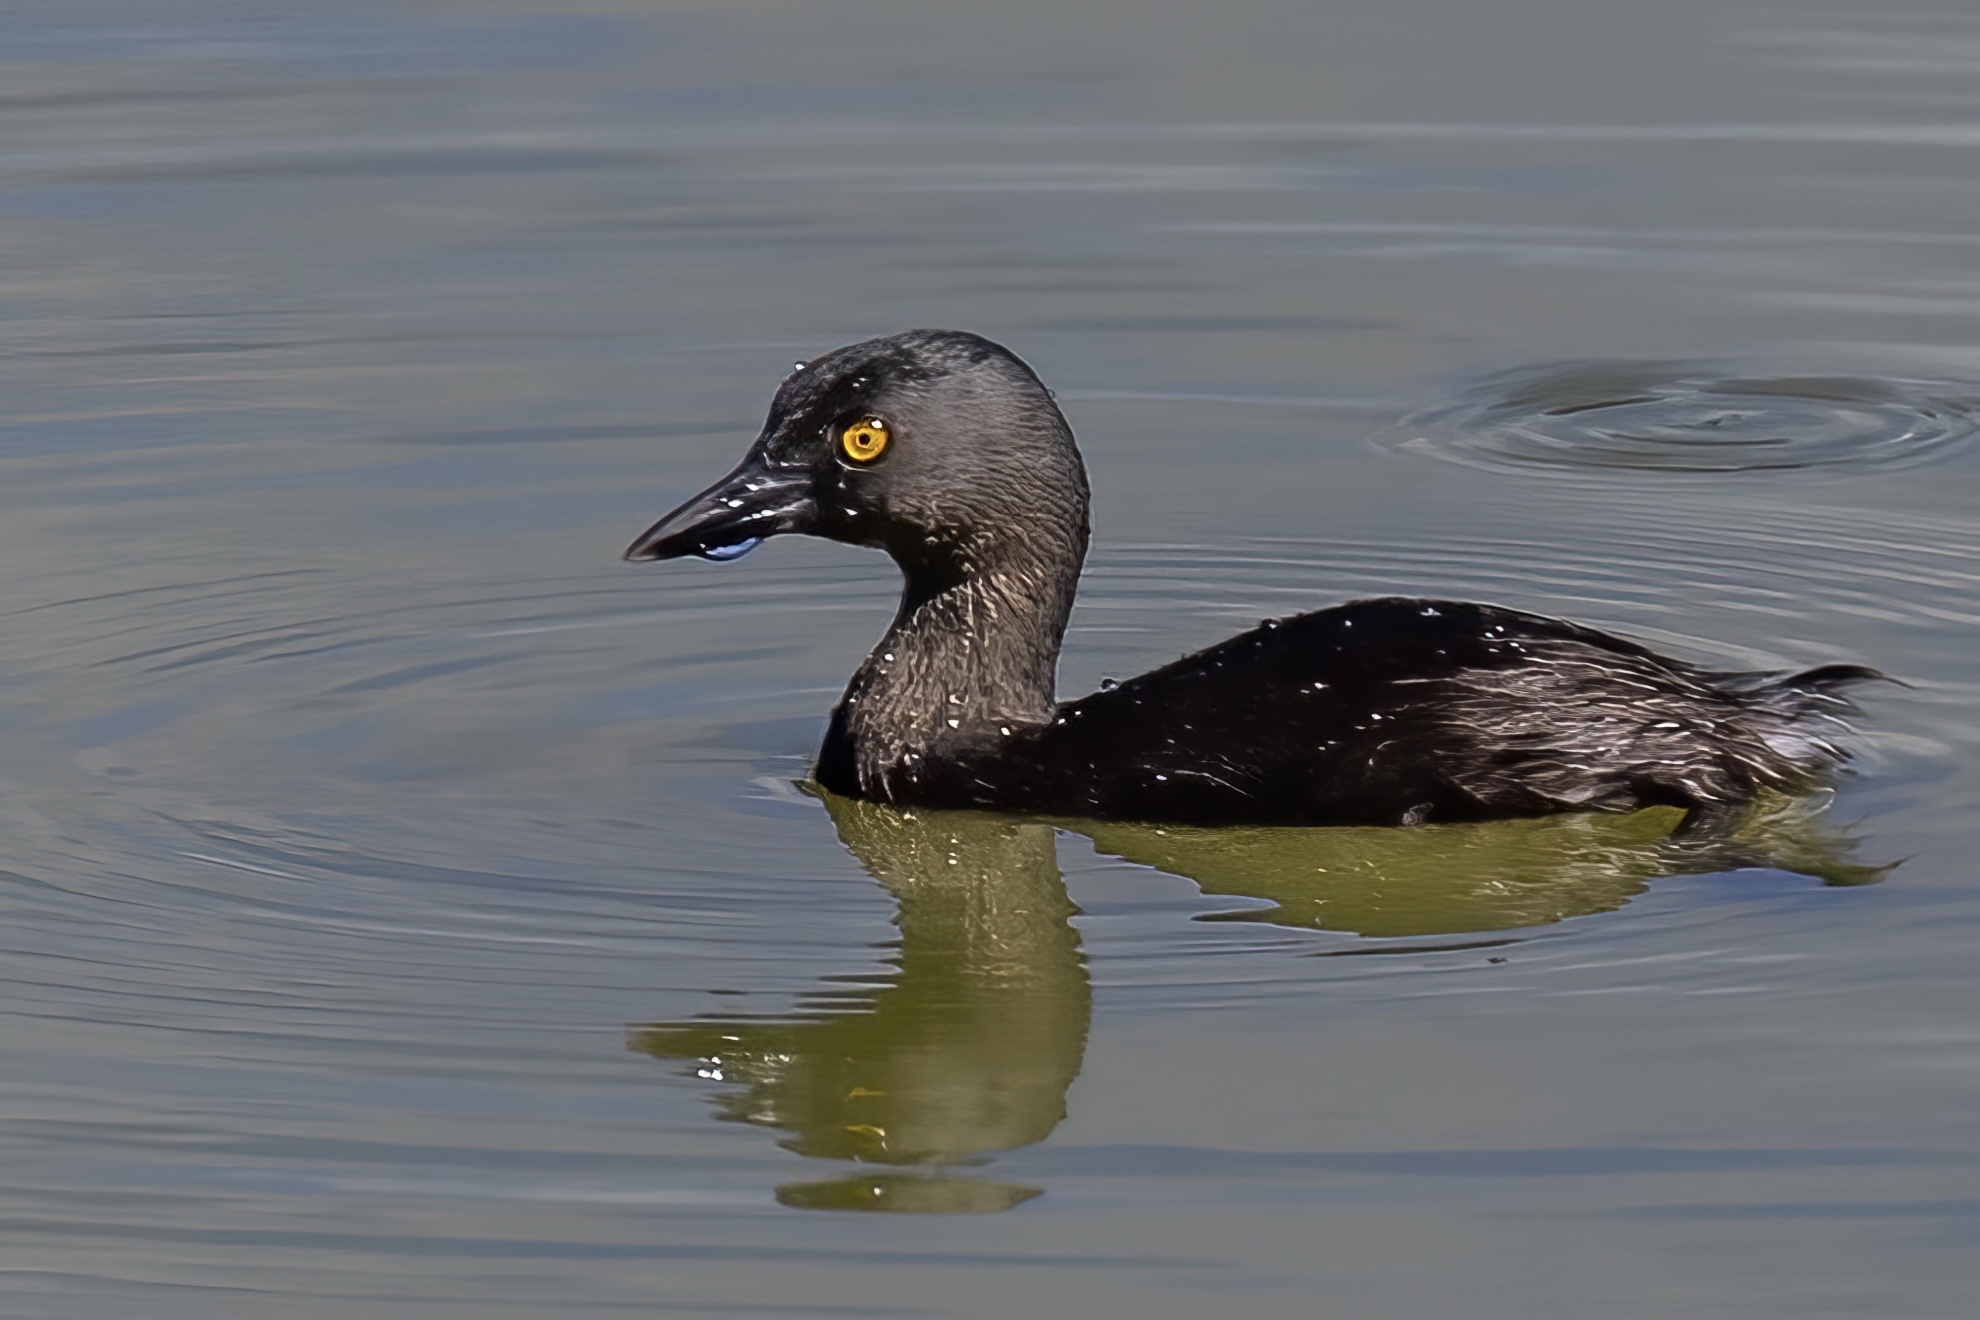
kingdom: Animalia
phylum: Chordata
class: Aves
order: Podicipediformes
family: Podicipedidae
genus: Tachybaptus
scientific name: Tachybaptus dominicus
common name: Least grebe
